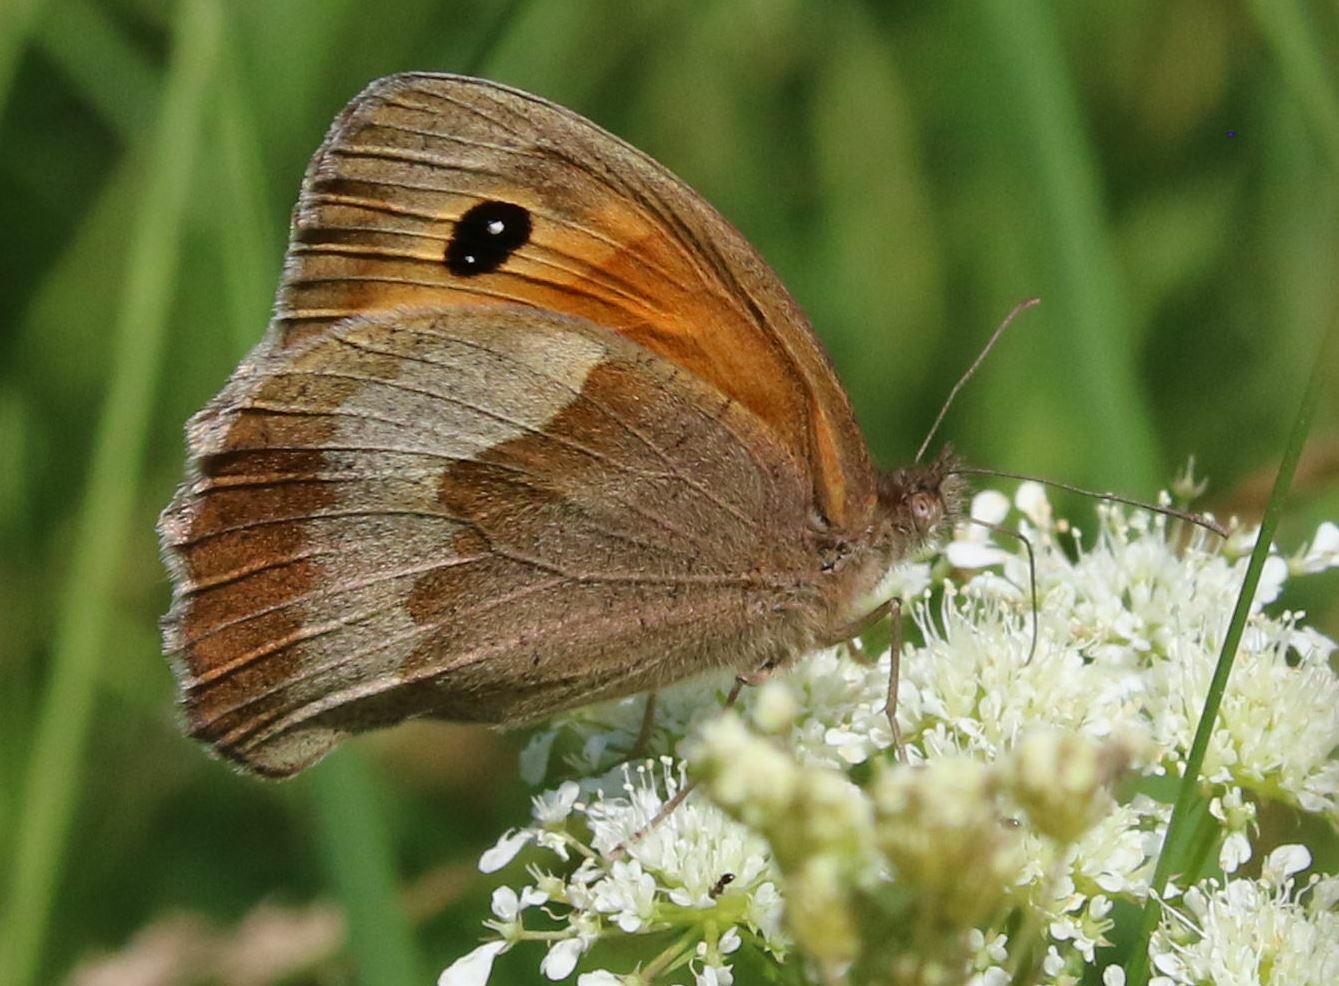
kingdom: Animalia
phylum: Arthropoda
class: Insecta
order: Lepidoptera
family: Nymphalidae
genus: Maniola
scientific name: Maniola jurtina
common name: Meadow brown
